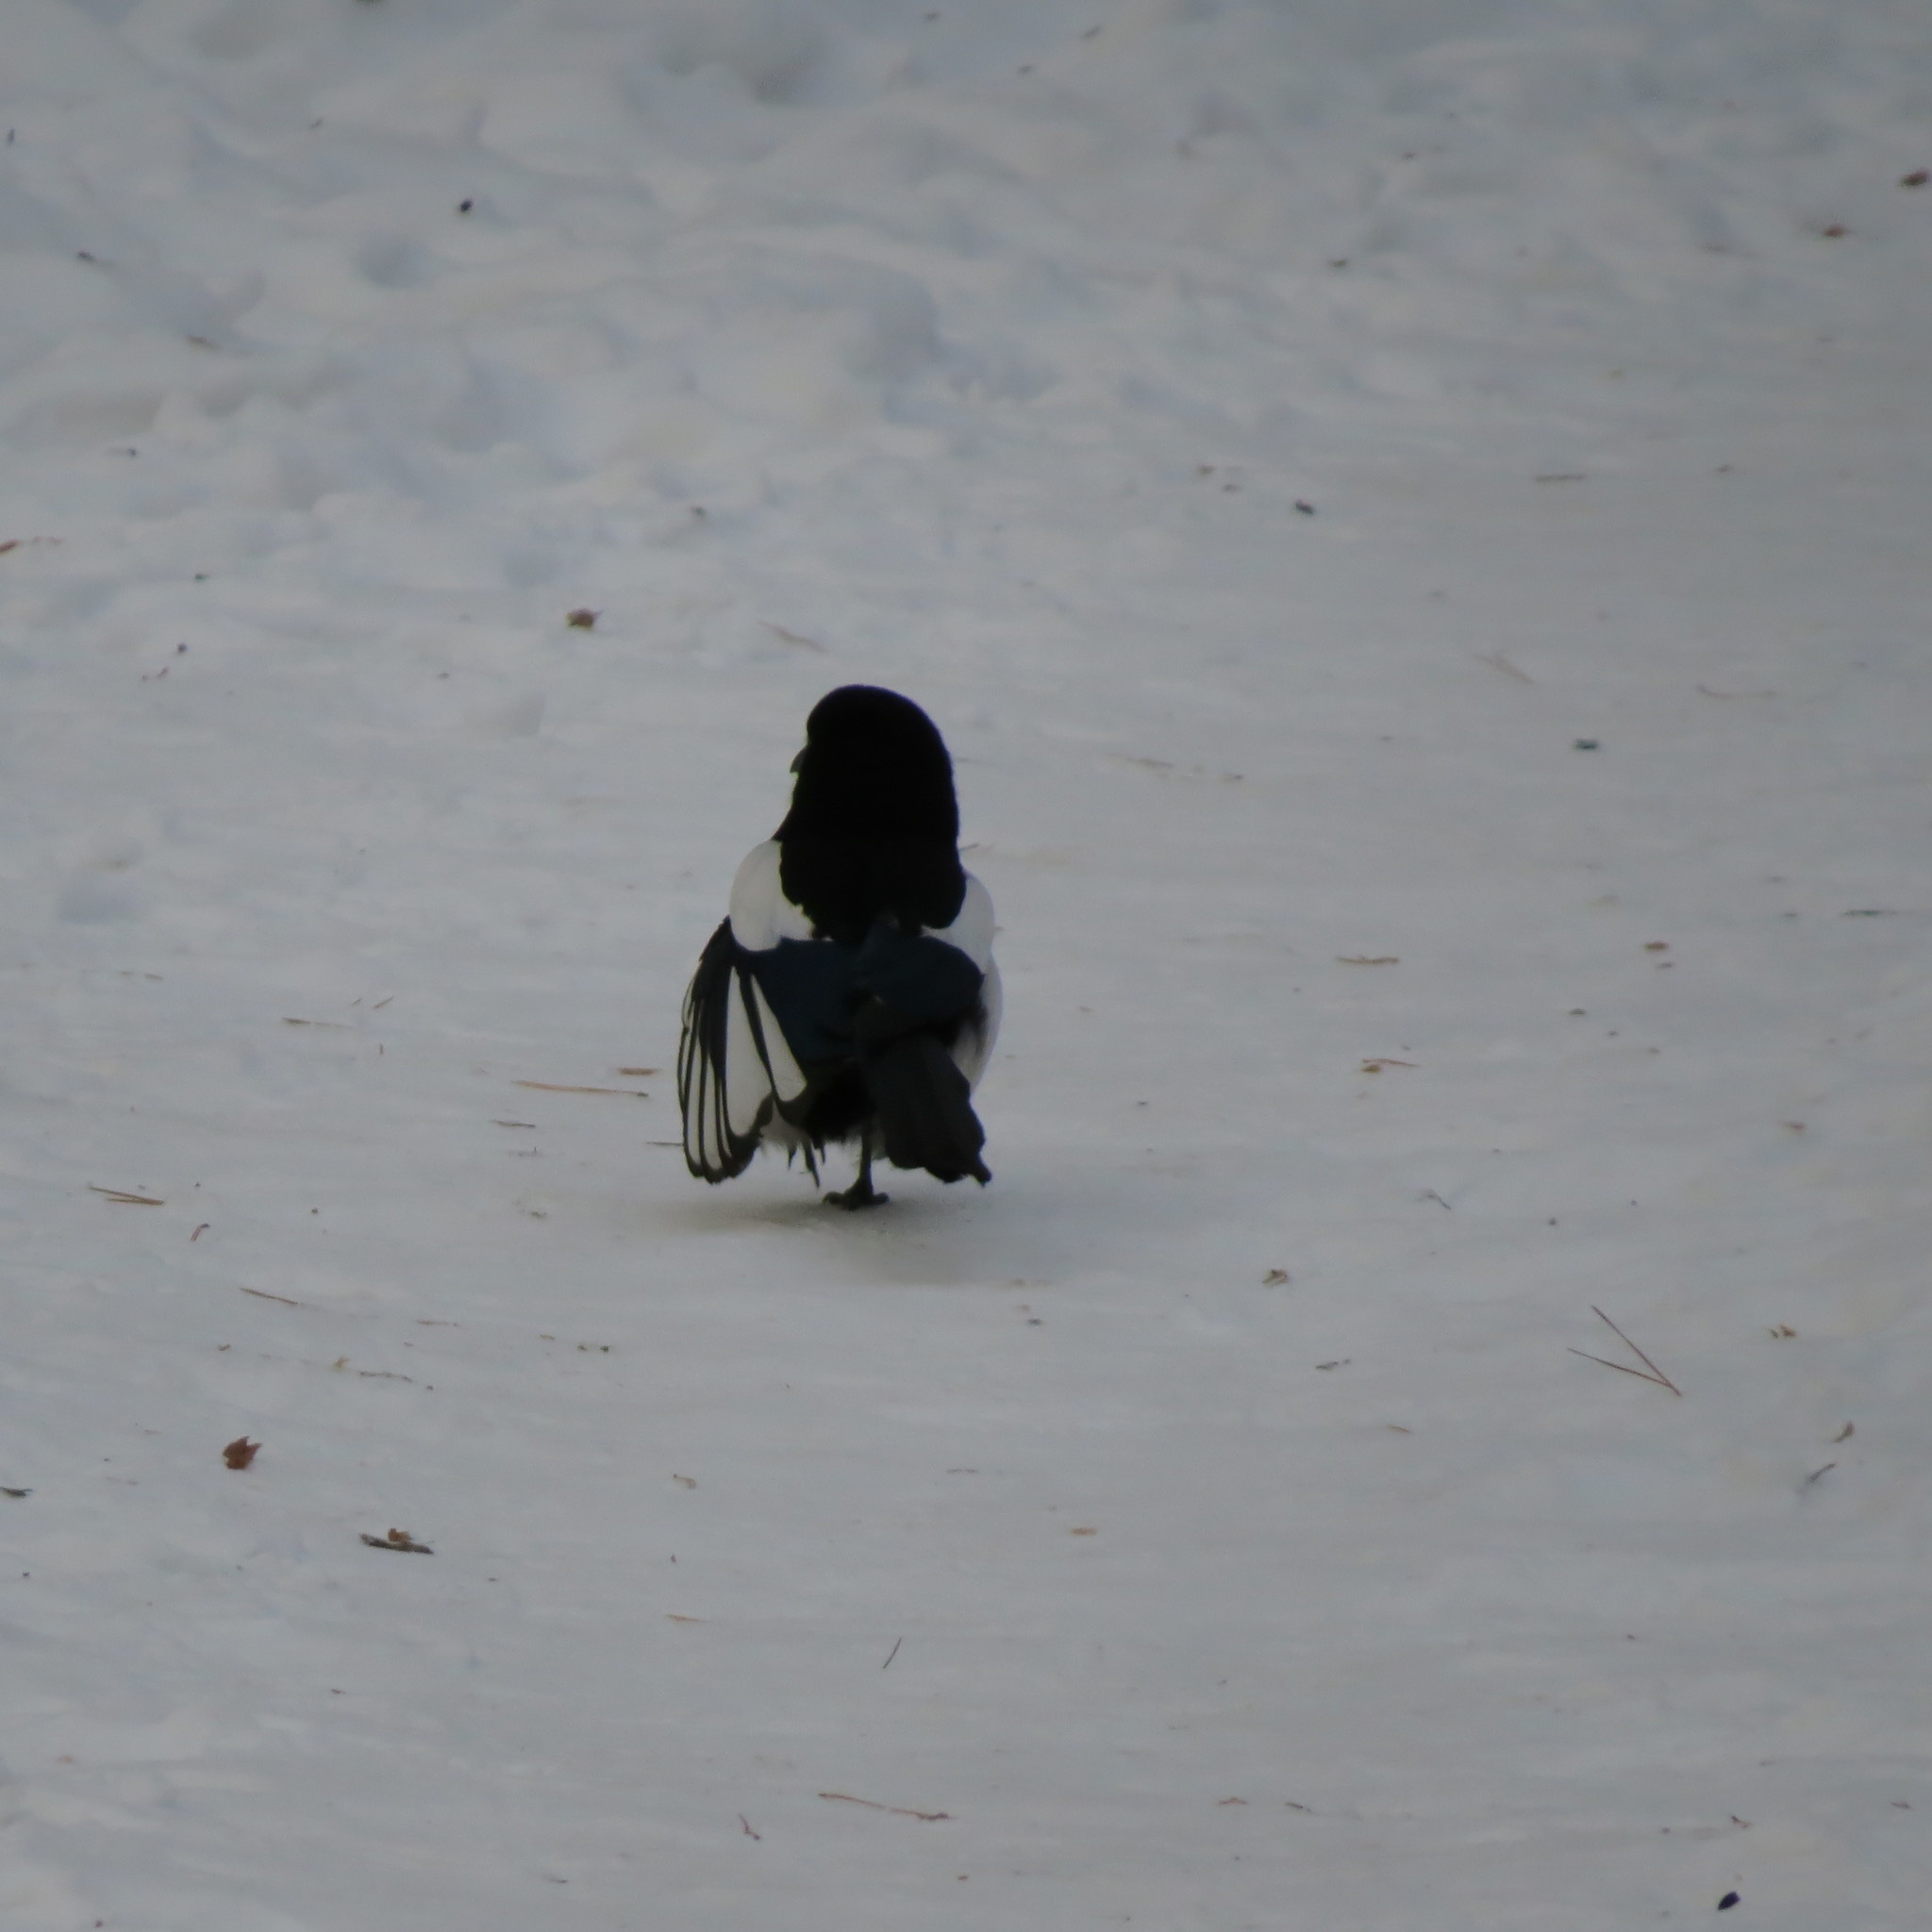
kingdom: Animalia
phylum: Chordata
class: Aves
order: Passeriformes
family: Corvidae
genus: Pica
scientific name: Pica pica
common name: Eurasian magpie
